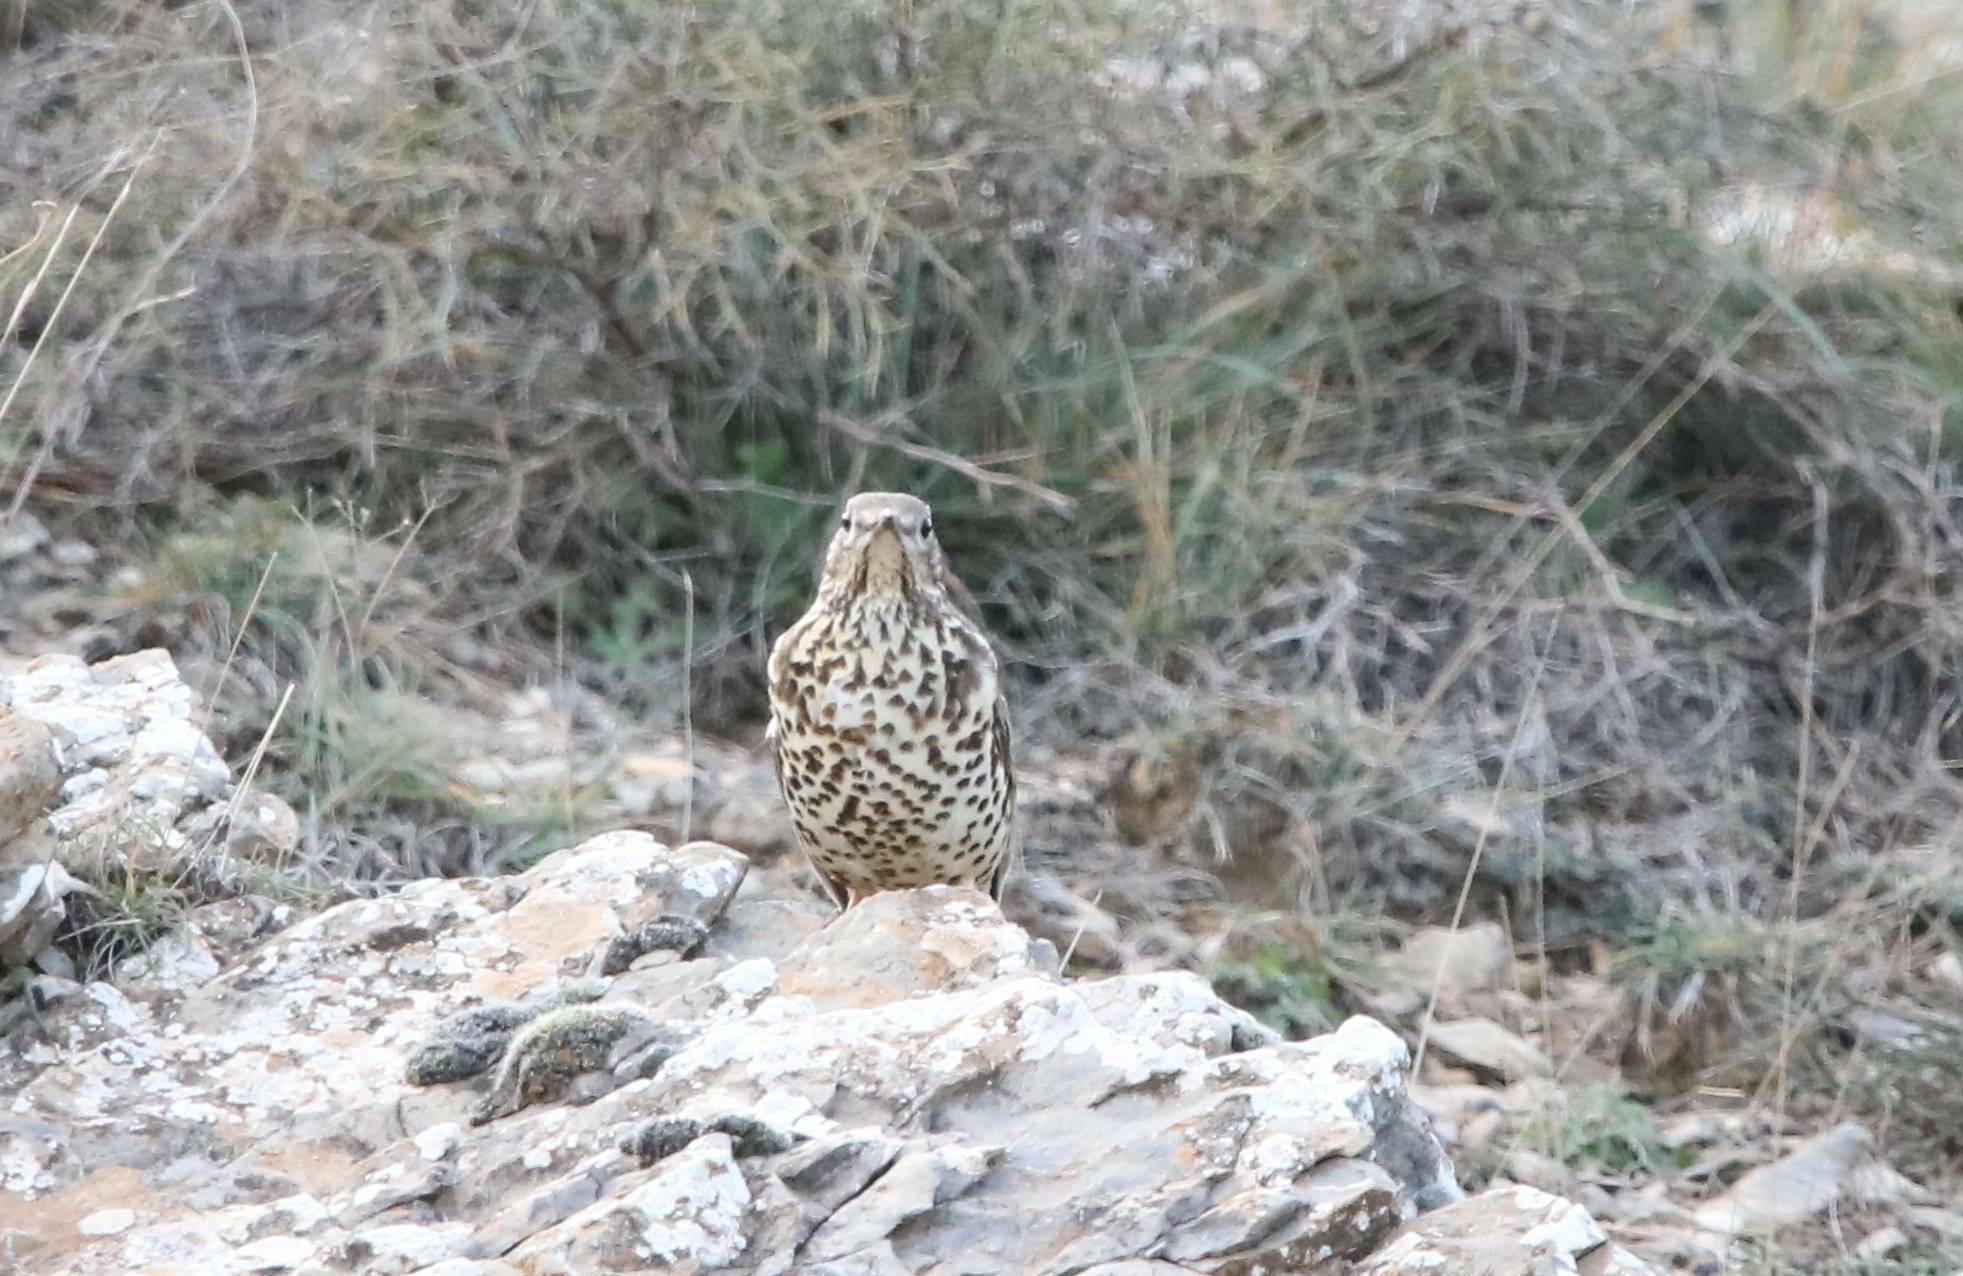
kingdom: Animalia
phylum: Chordata
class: Aves
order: Passeriformes
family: Turdidae
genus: Turdus
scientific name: Turdus viscivorus
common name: Mistle thrush
